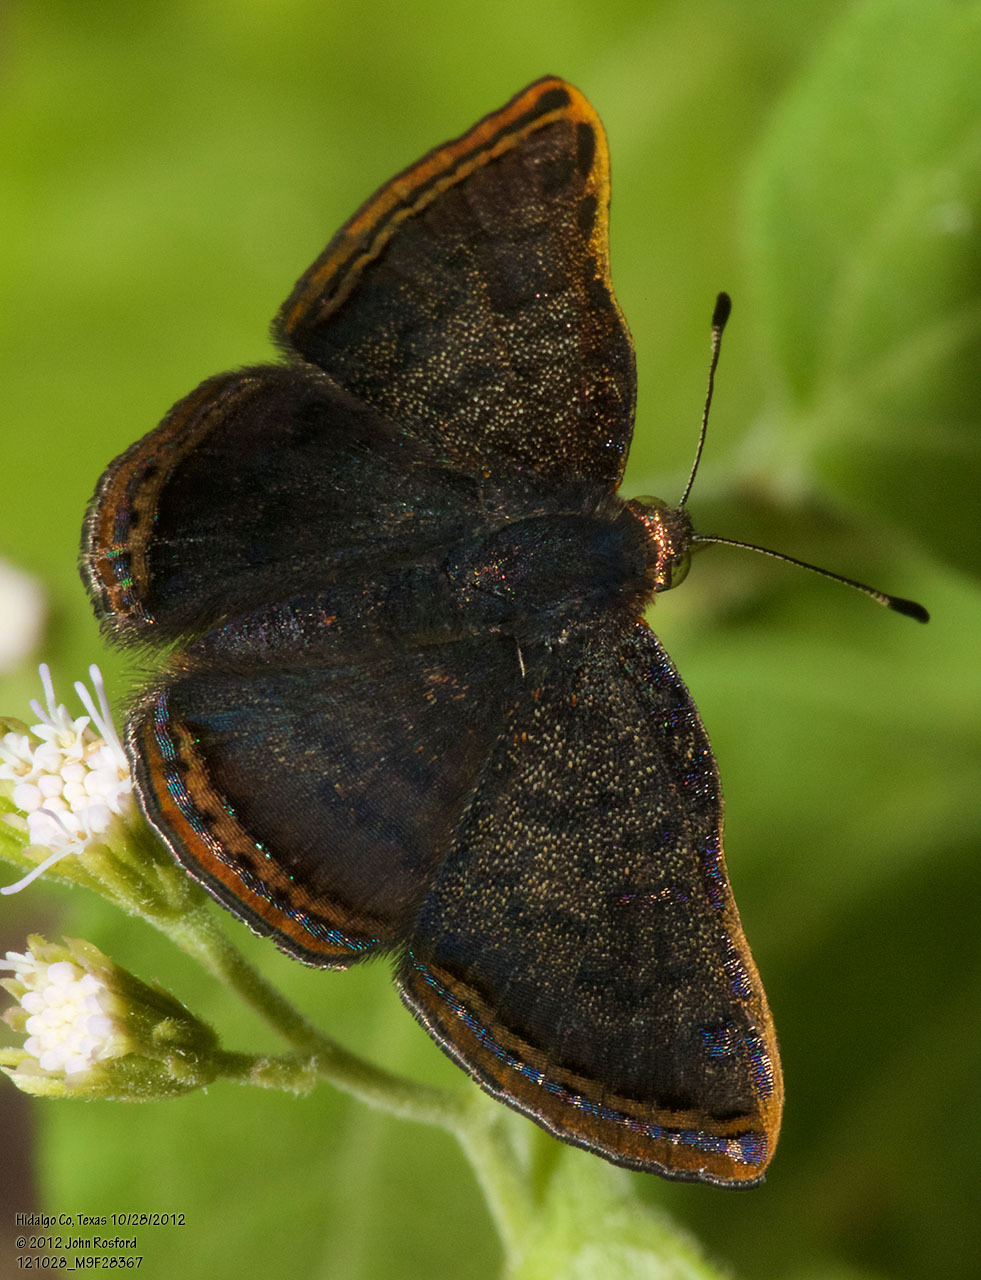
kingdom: Animalia
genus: Caria
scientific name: Caria ino
